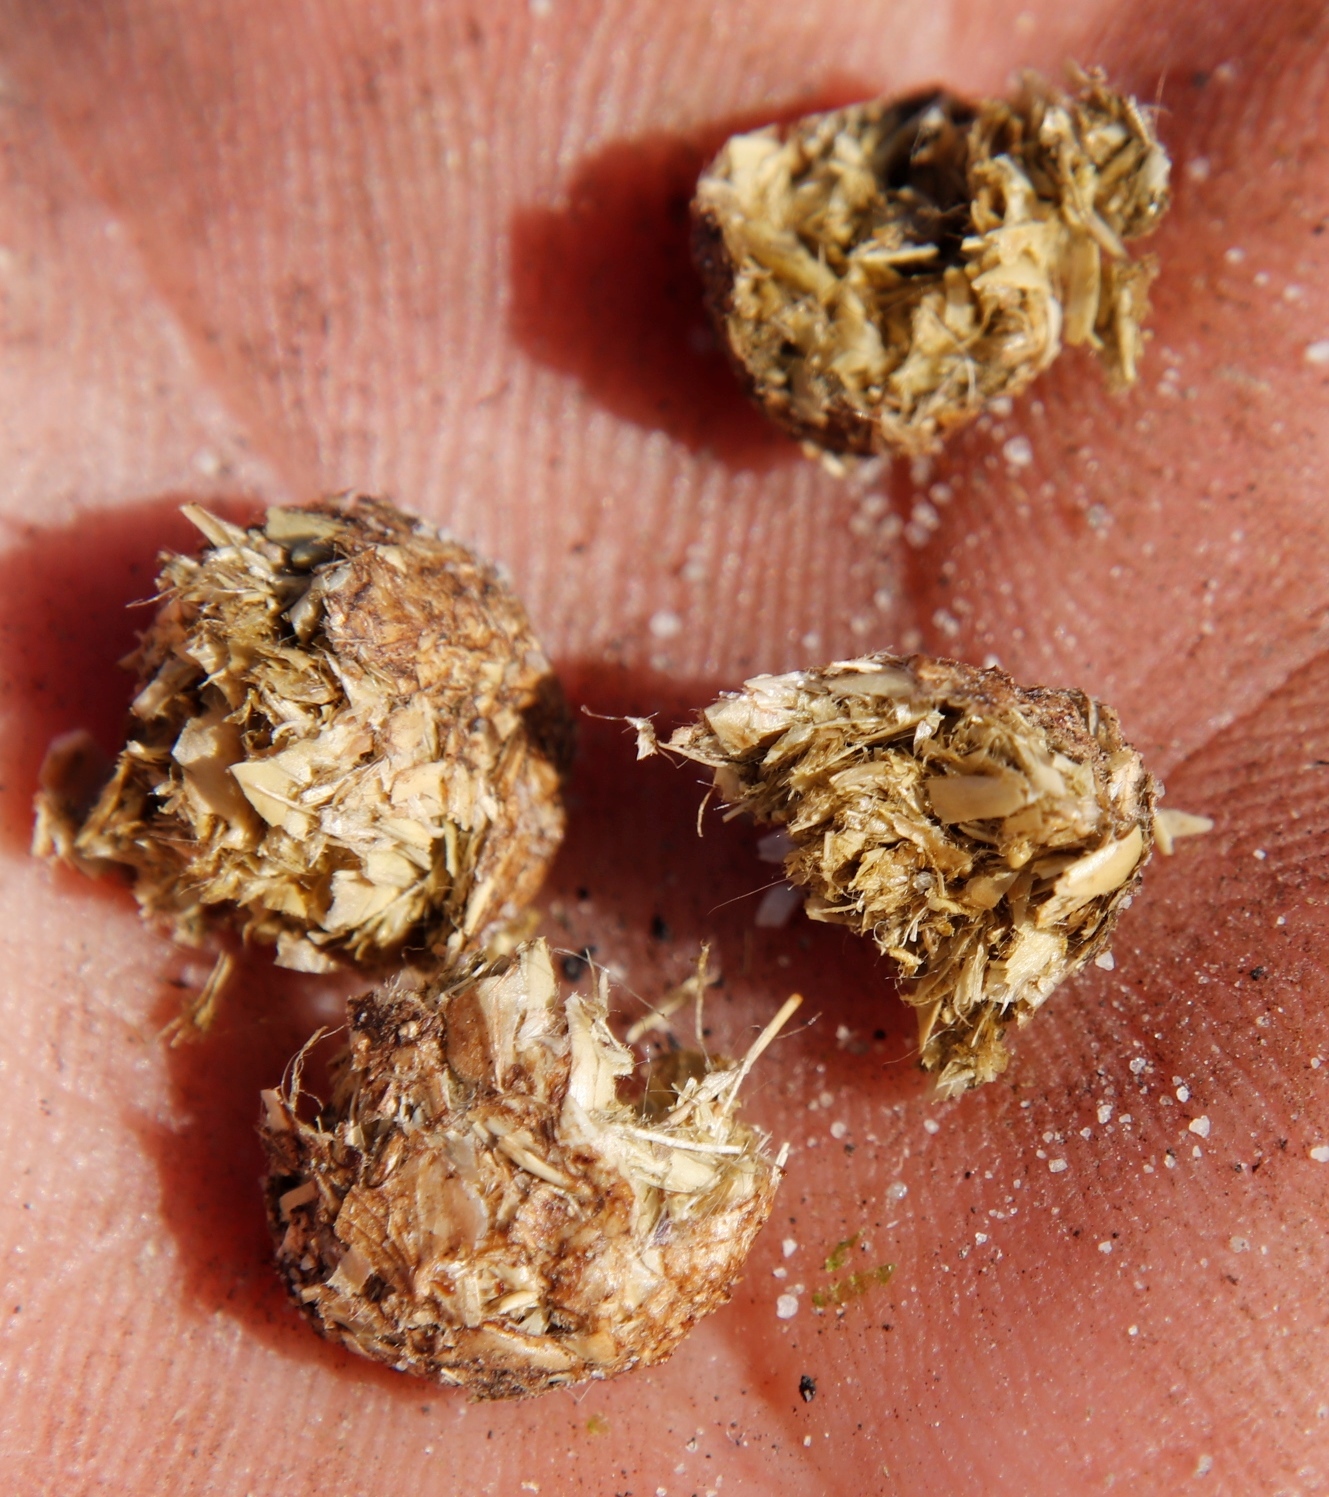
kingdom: Animalia
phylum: Chordata
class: Mammalia
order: Lagomorpha
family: Leporidae
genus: Oryctolagus
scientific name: Oryctolagus cuniculus
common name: European rabbit
